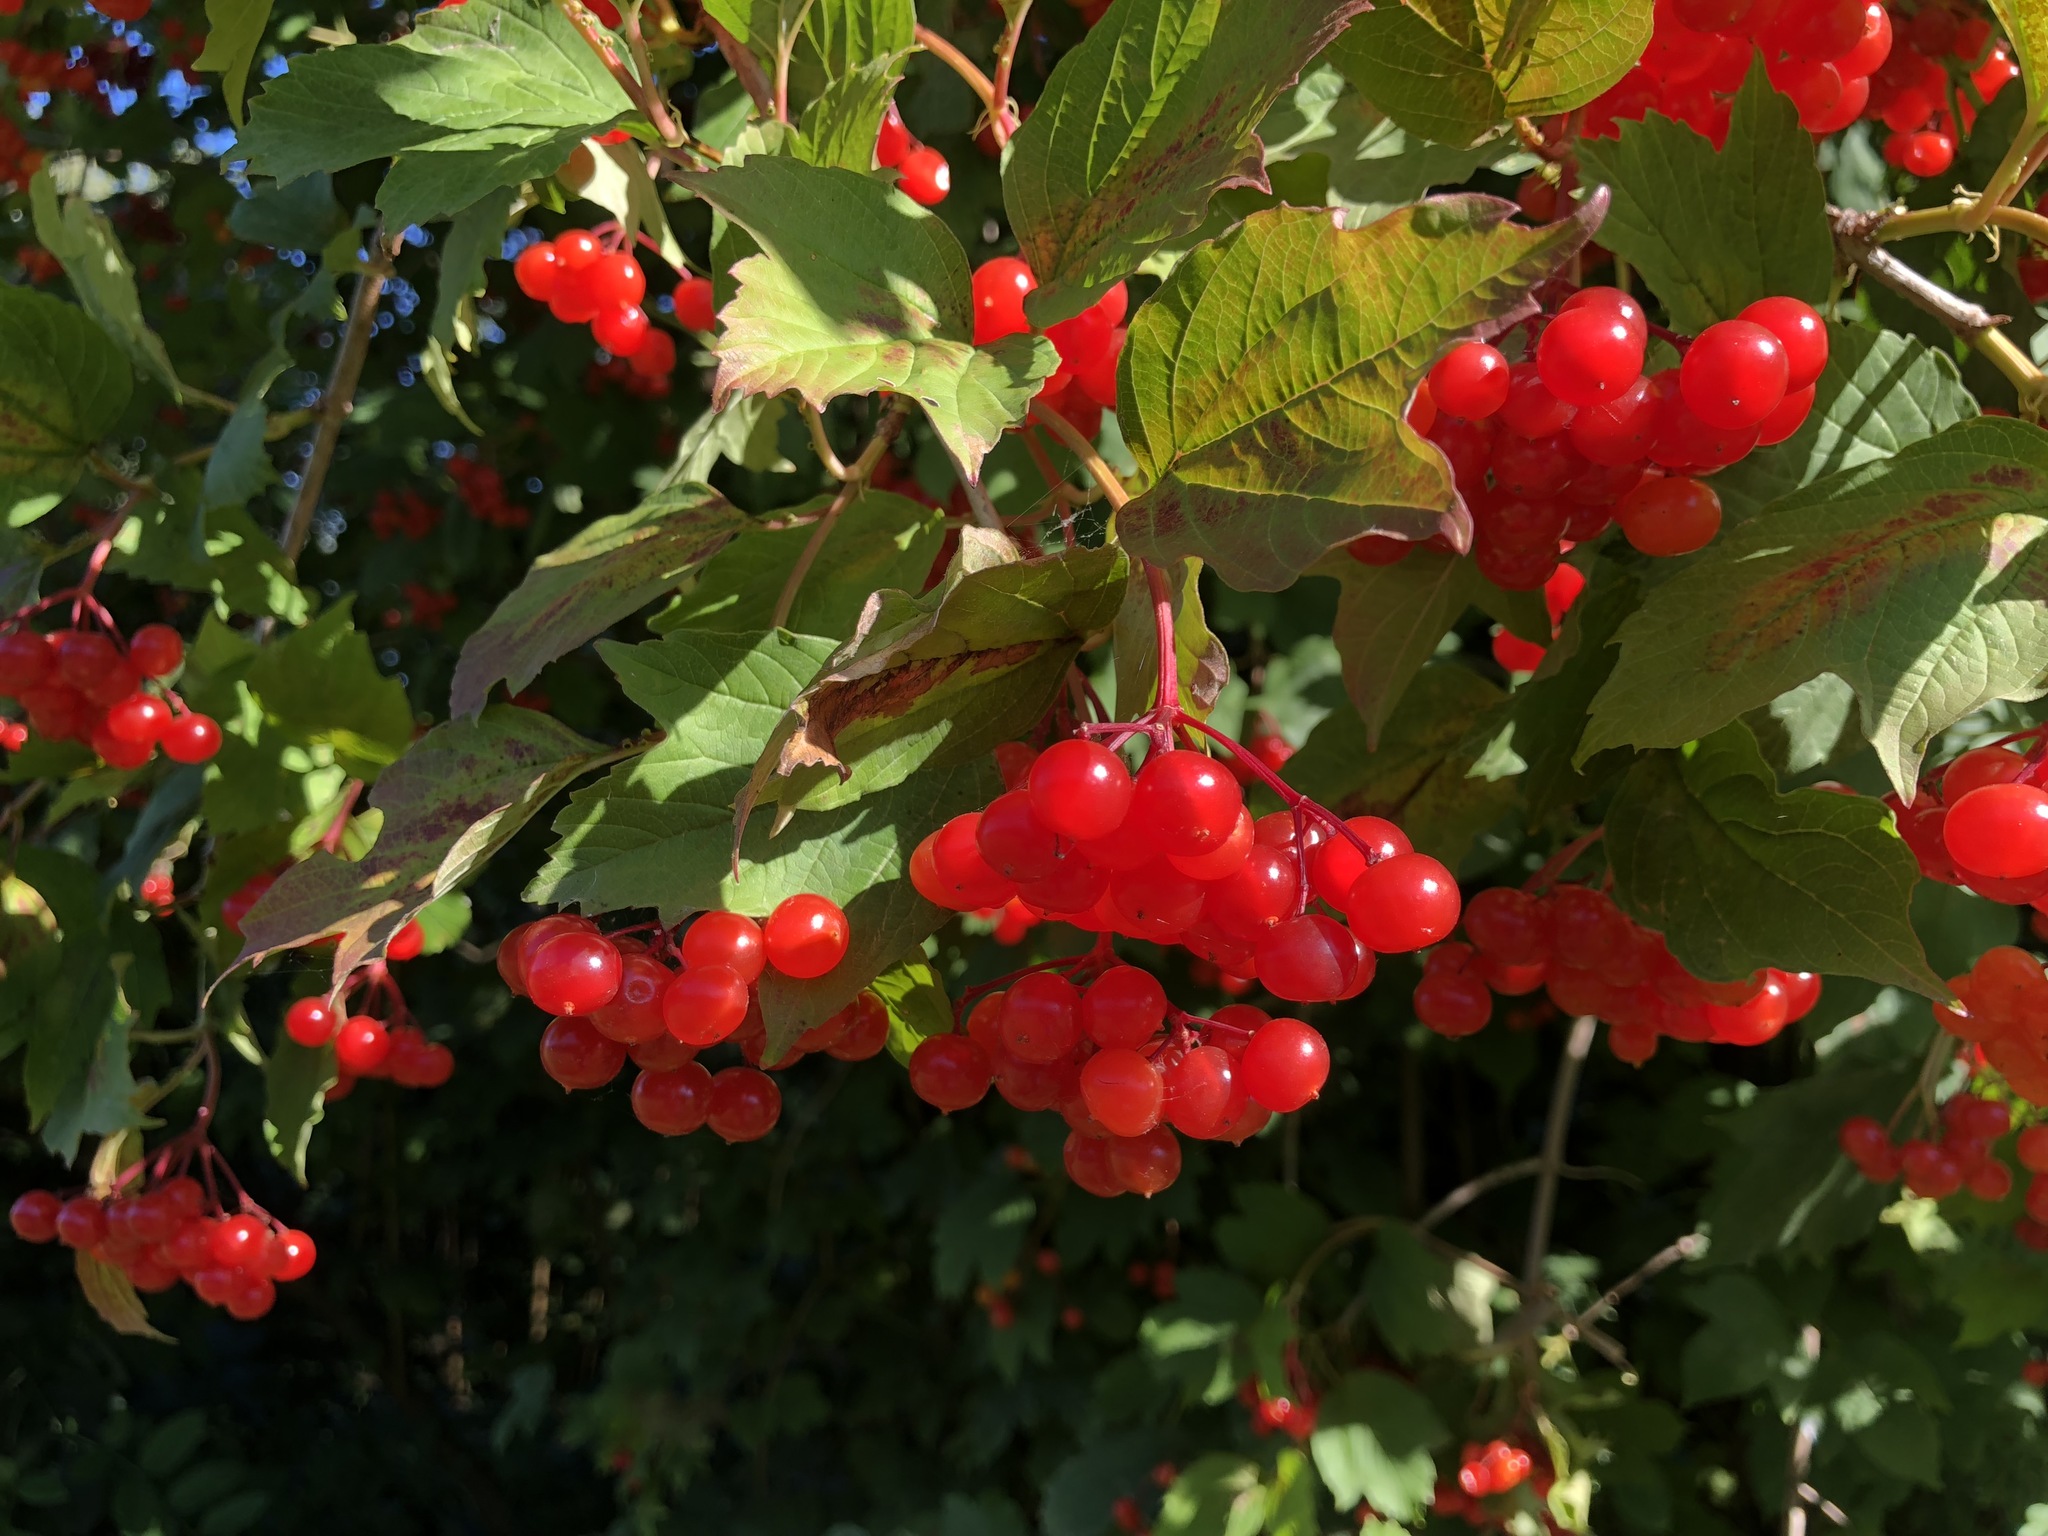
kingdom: Plantae
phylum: Tracheophyta
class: Magnoliopsida
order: Dipsacales
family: Viburnaceae
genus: Viburnum
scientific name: Viburnum opulus
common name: Guelder-rose
